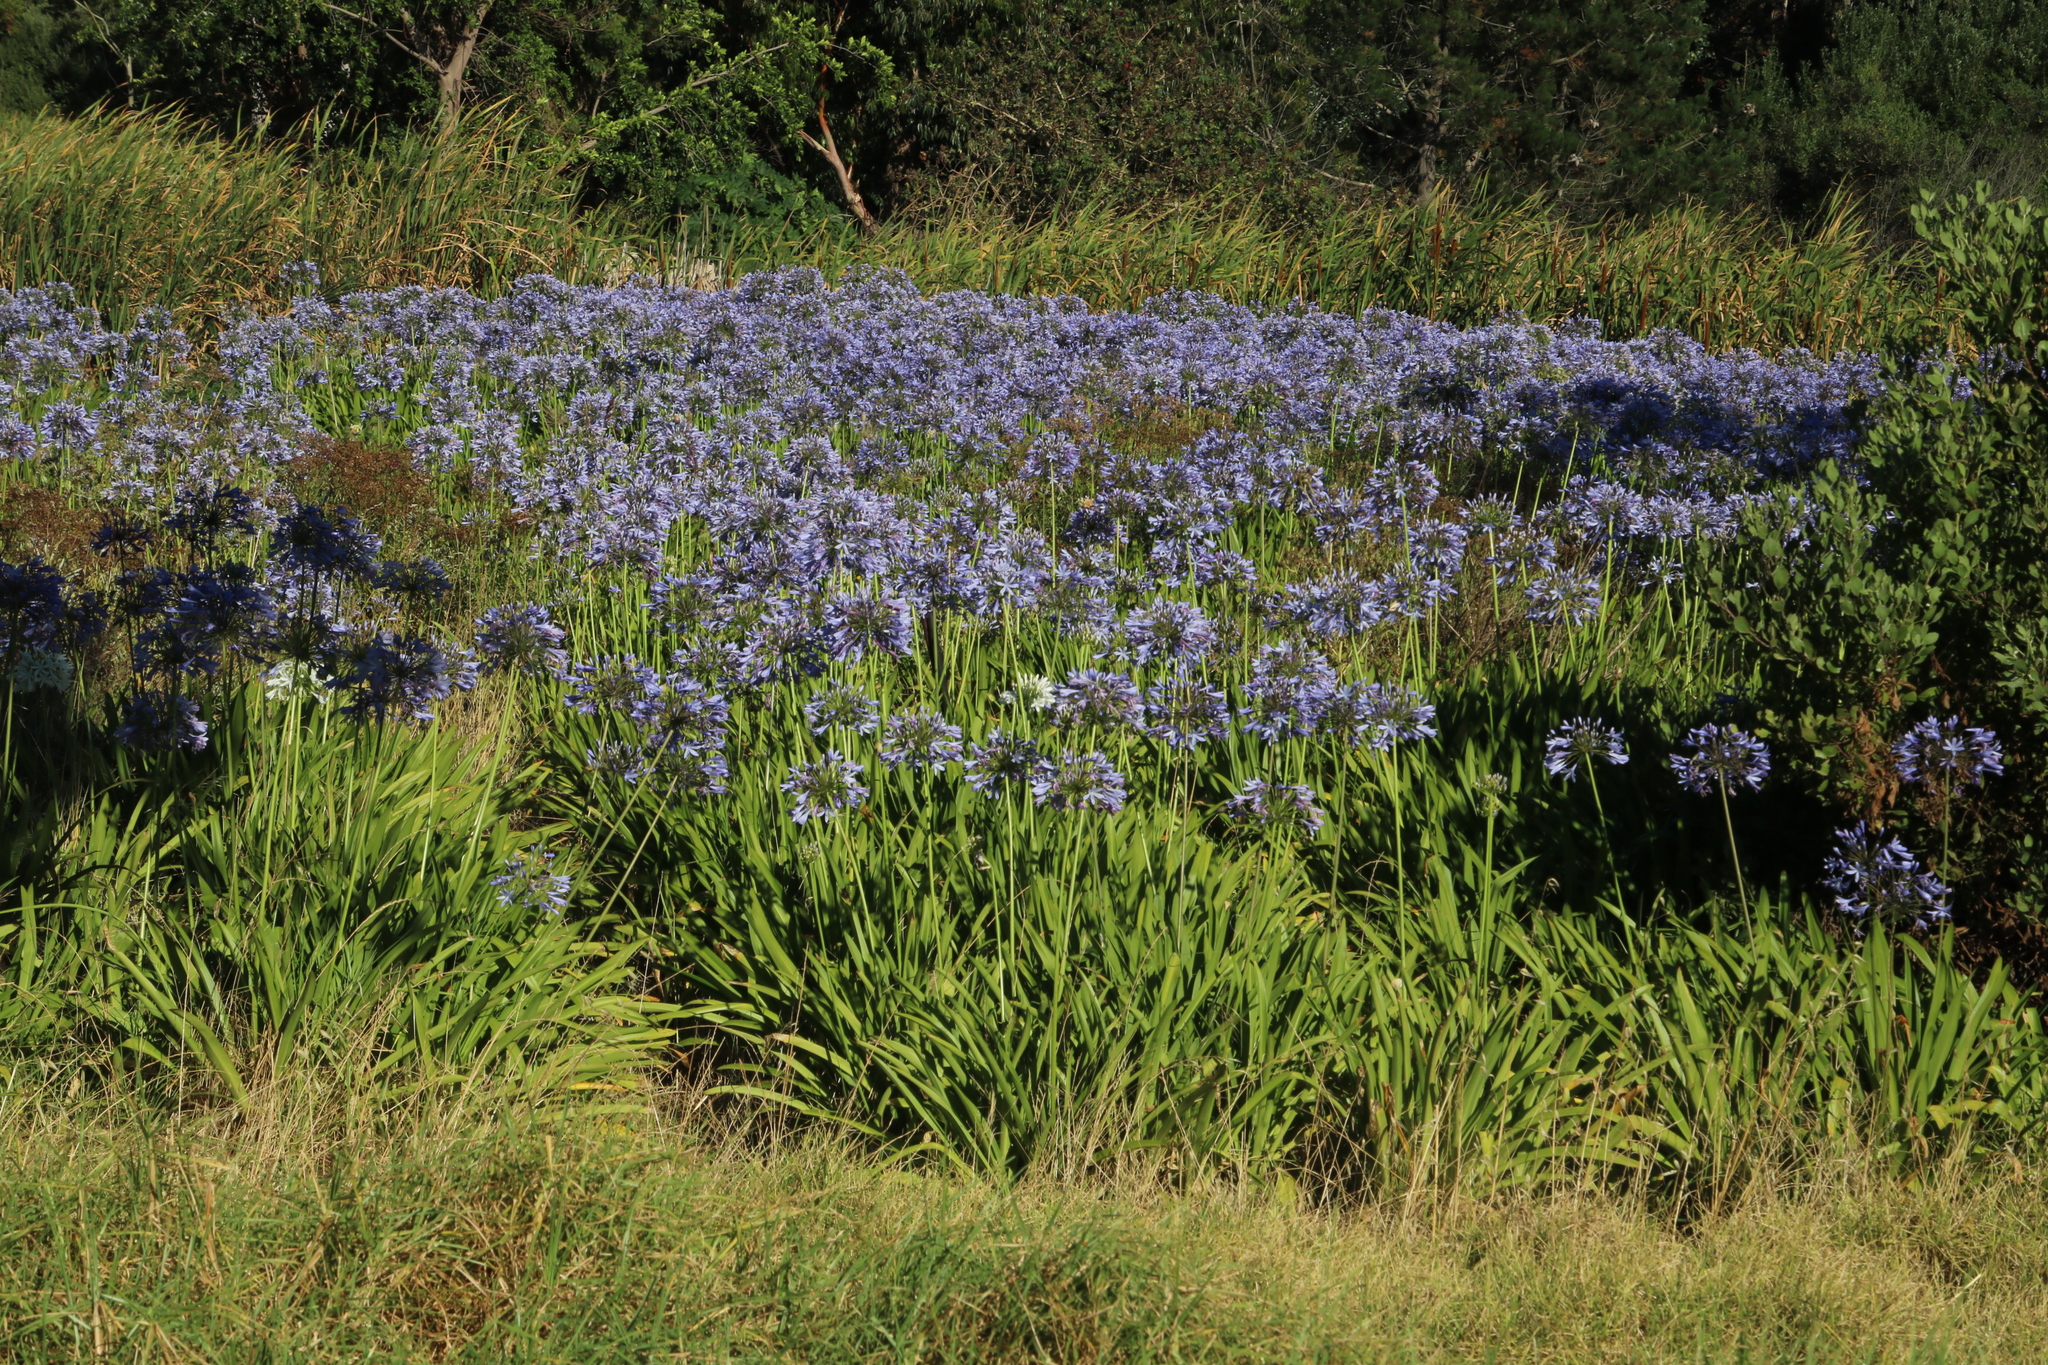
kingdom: Plantae
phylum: Tracheophyta
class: Liliopsida
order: Asparagales
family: Amaryllidaceae
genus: Agapanthus
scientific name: Agapanthus praecox
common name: African-lily
